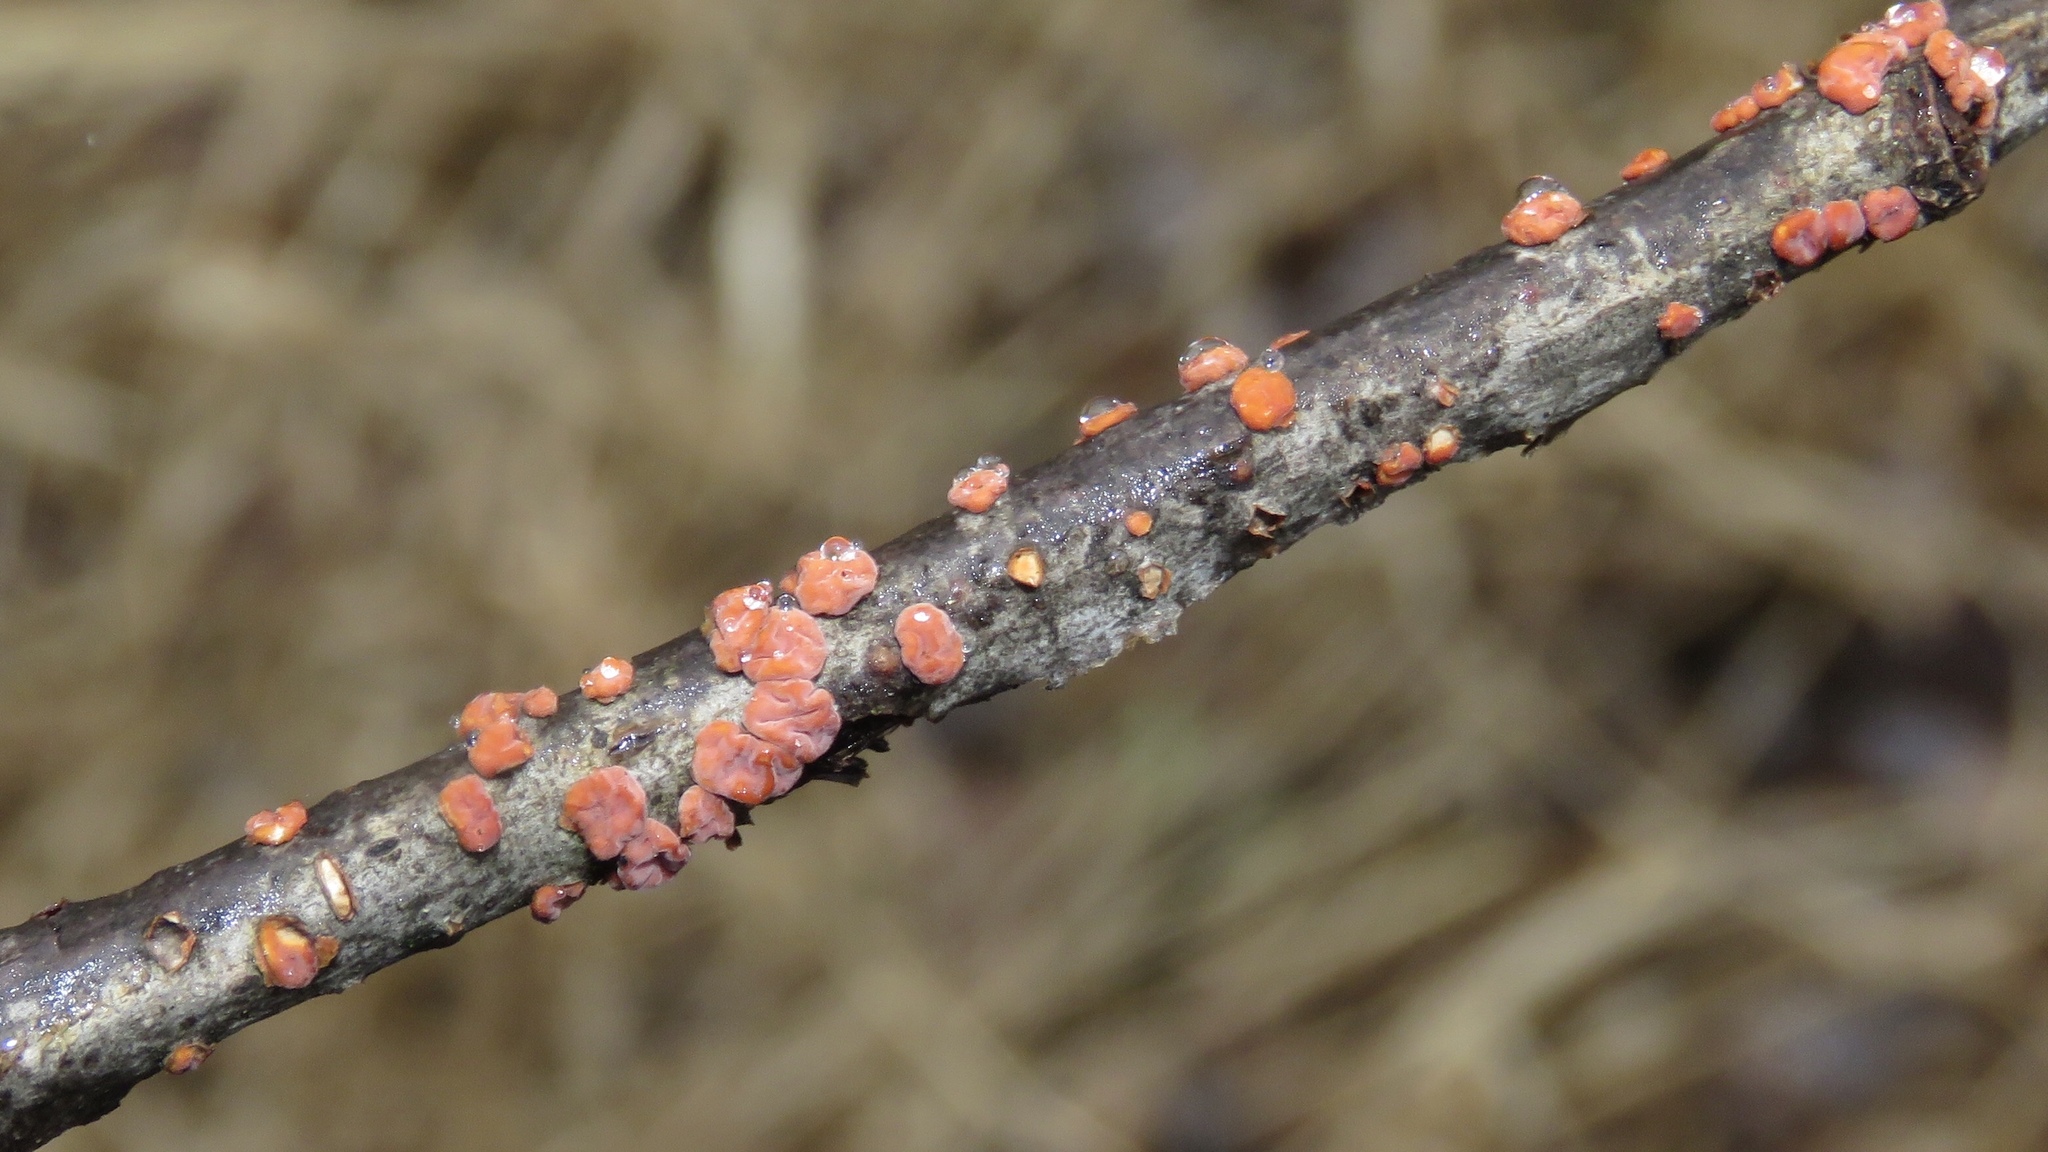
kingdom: Fungi
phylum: Basidiomycota
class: Agaricomycetes
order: Russulales
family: Peniophoraceae
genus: Peniophora
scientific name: Peniophora rufa
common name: Red tree brain fungus
